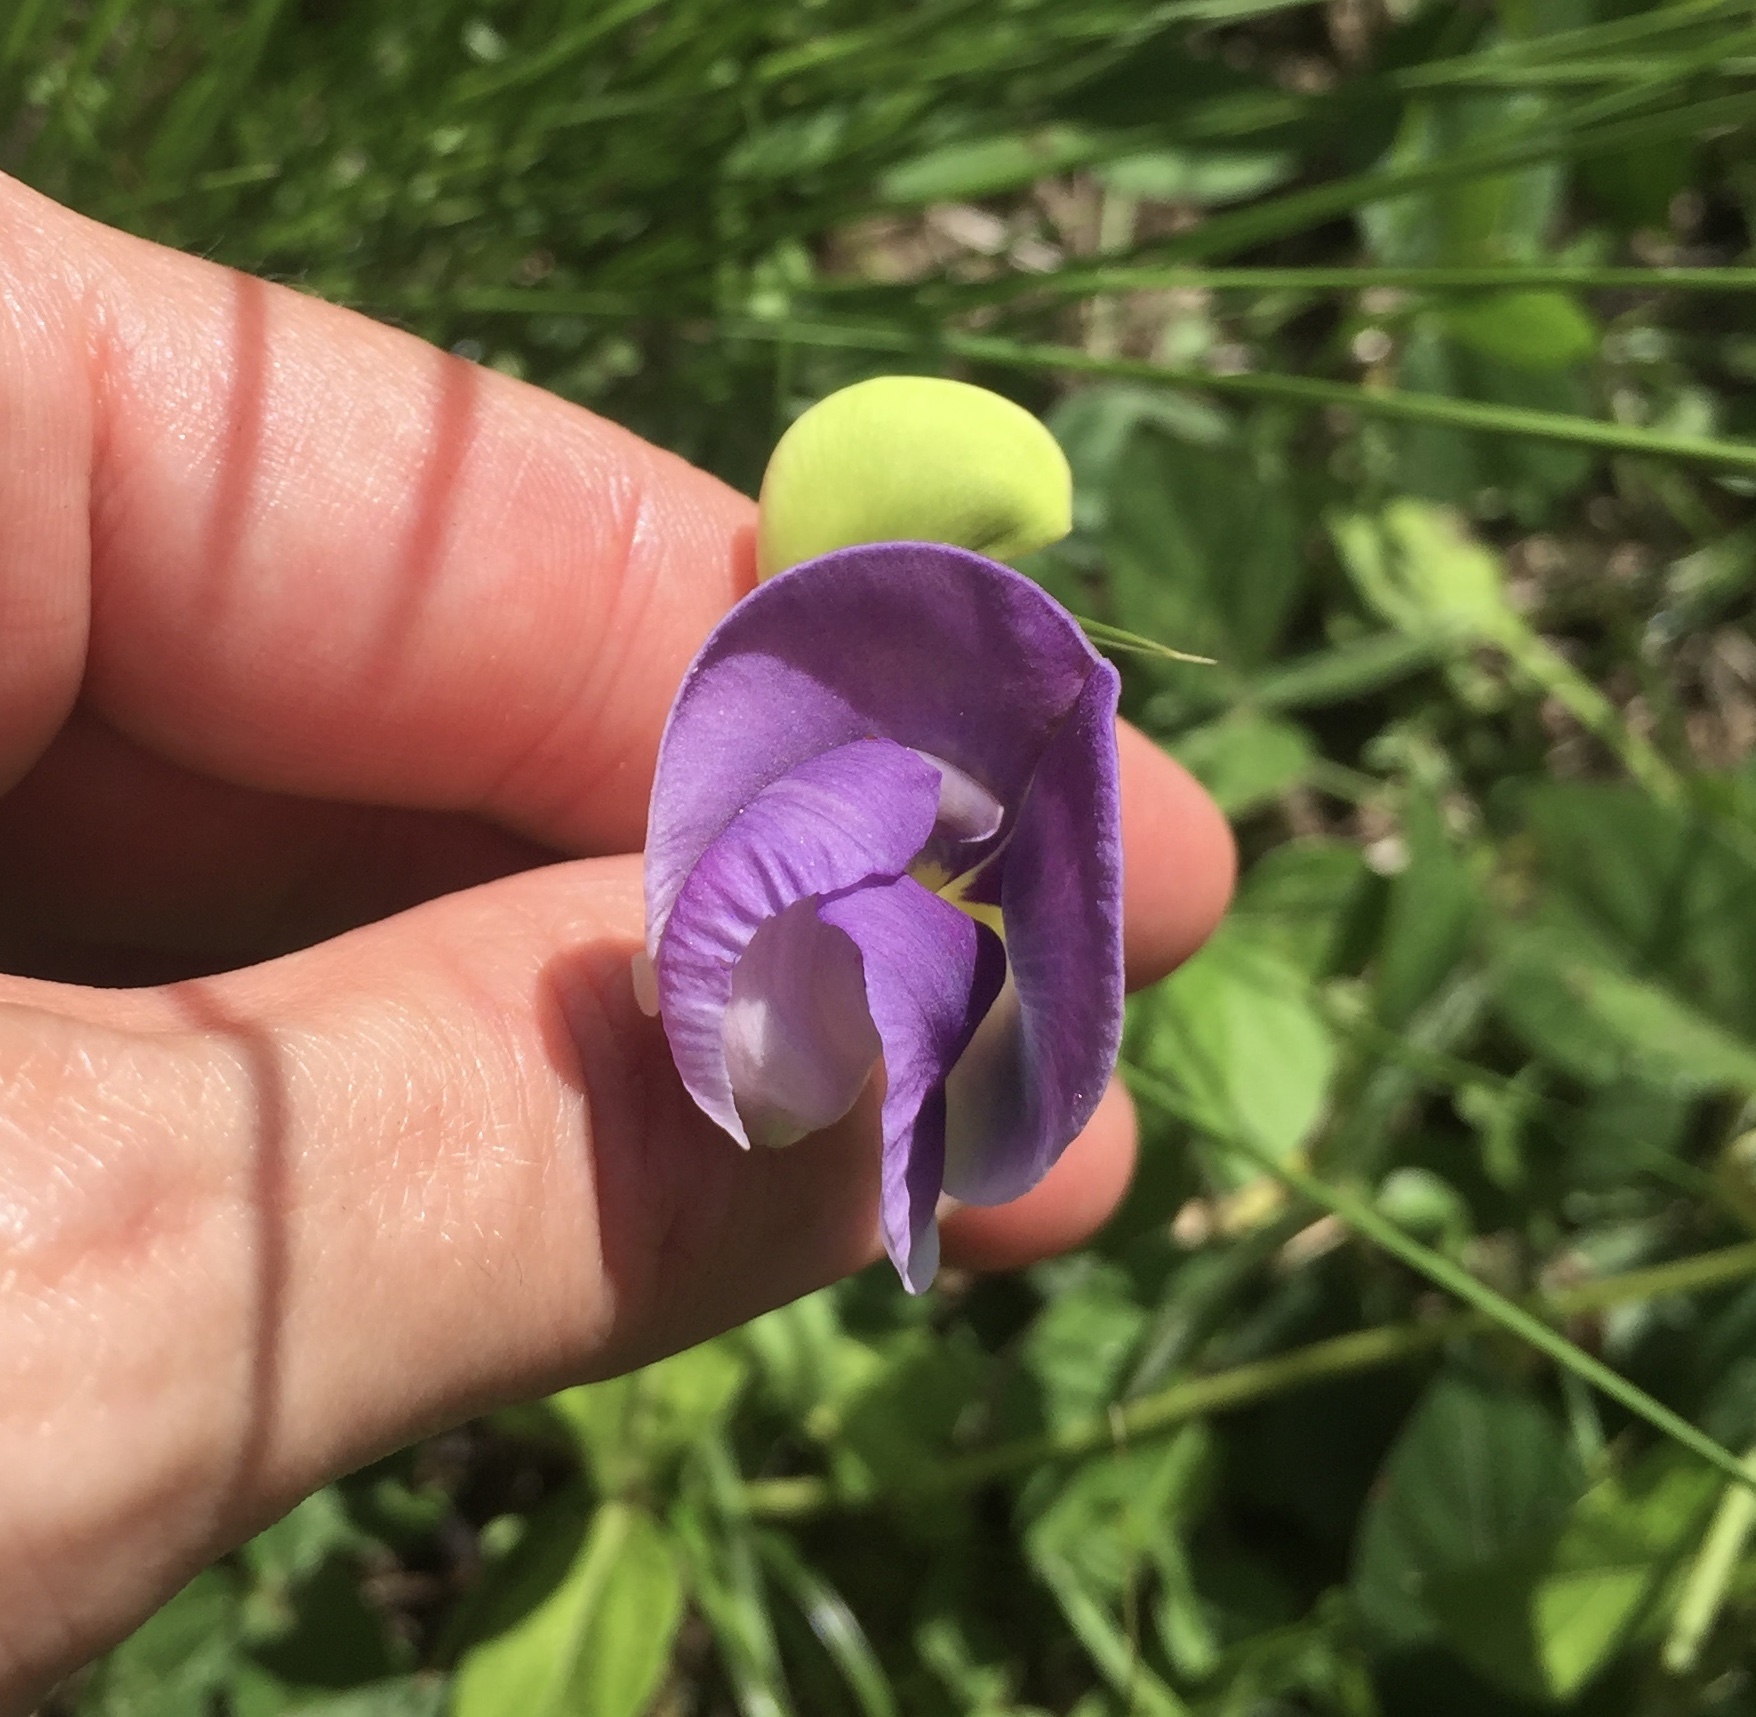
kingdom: Plantae
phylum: Tracheophyta
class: Magnoliopsida
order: Fabales
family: Fabaceae
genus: Vigna
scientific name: Vigna vexillata
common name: Zombi pea
